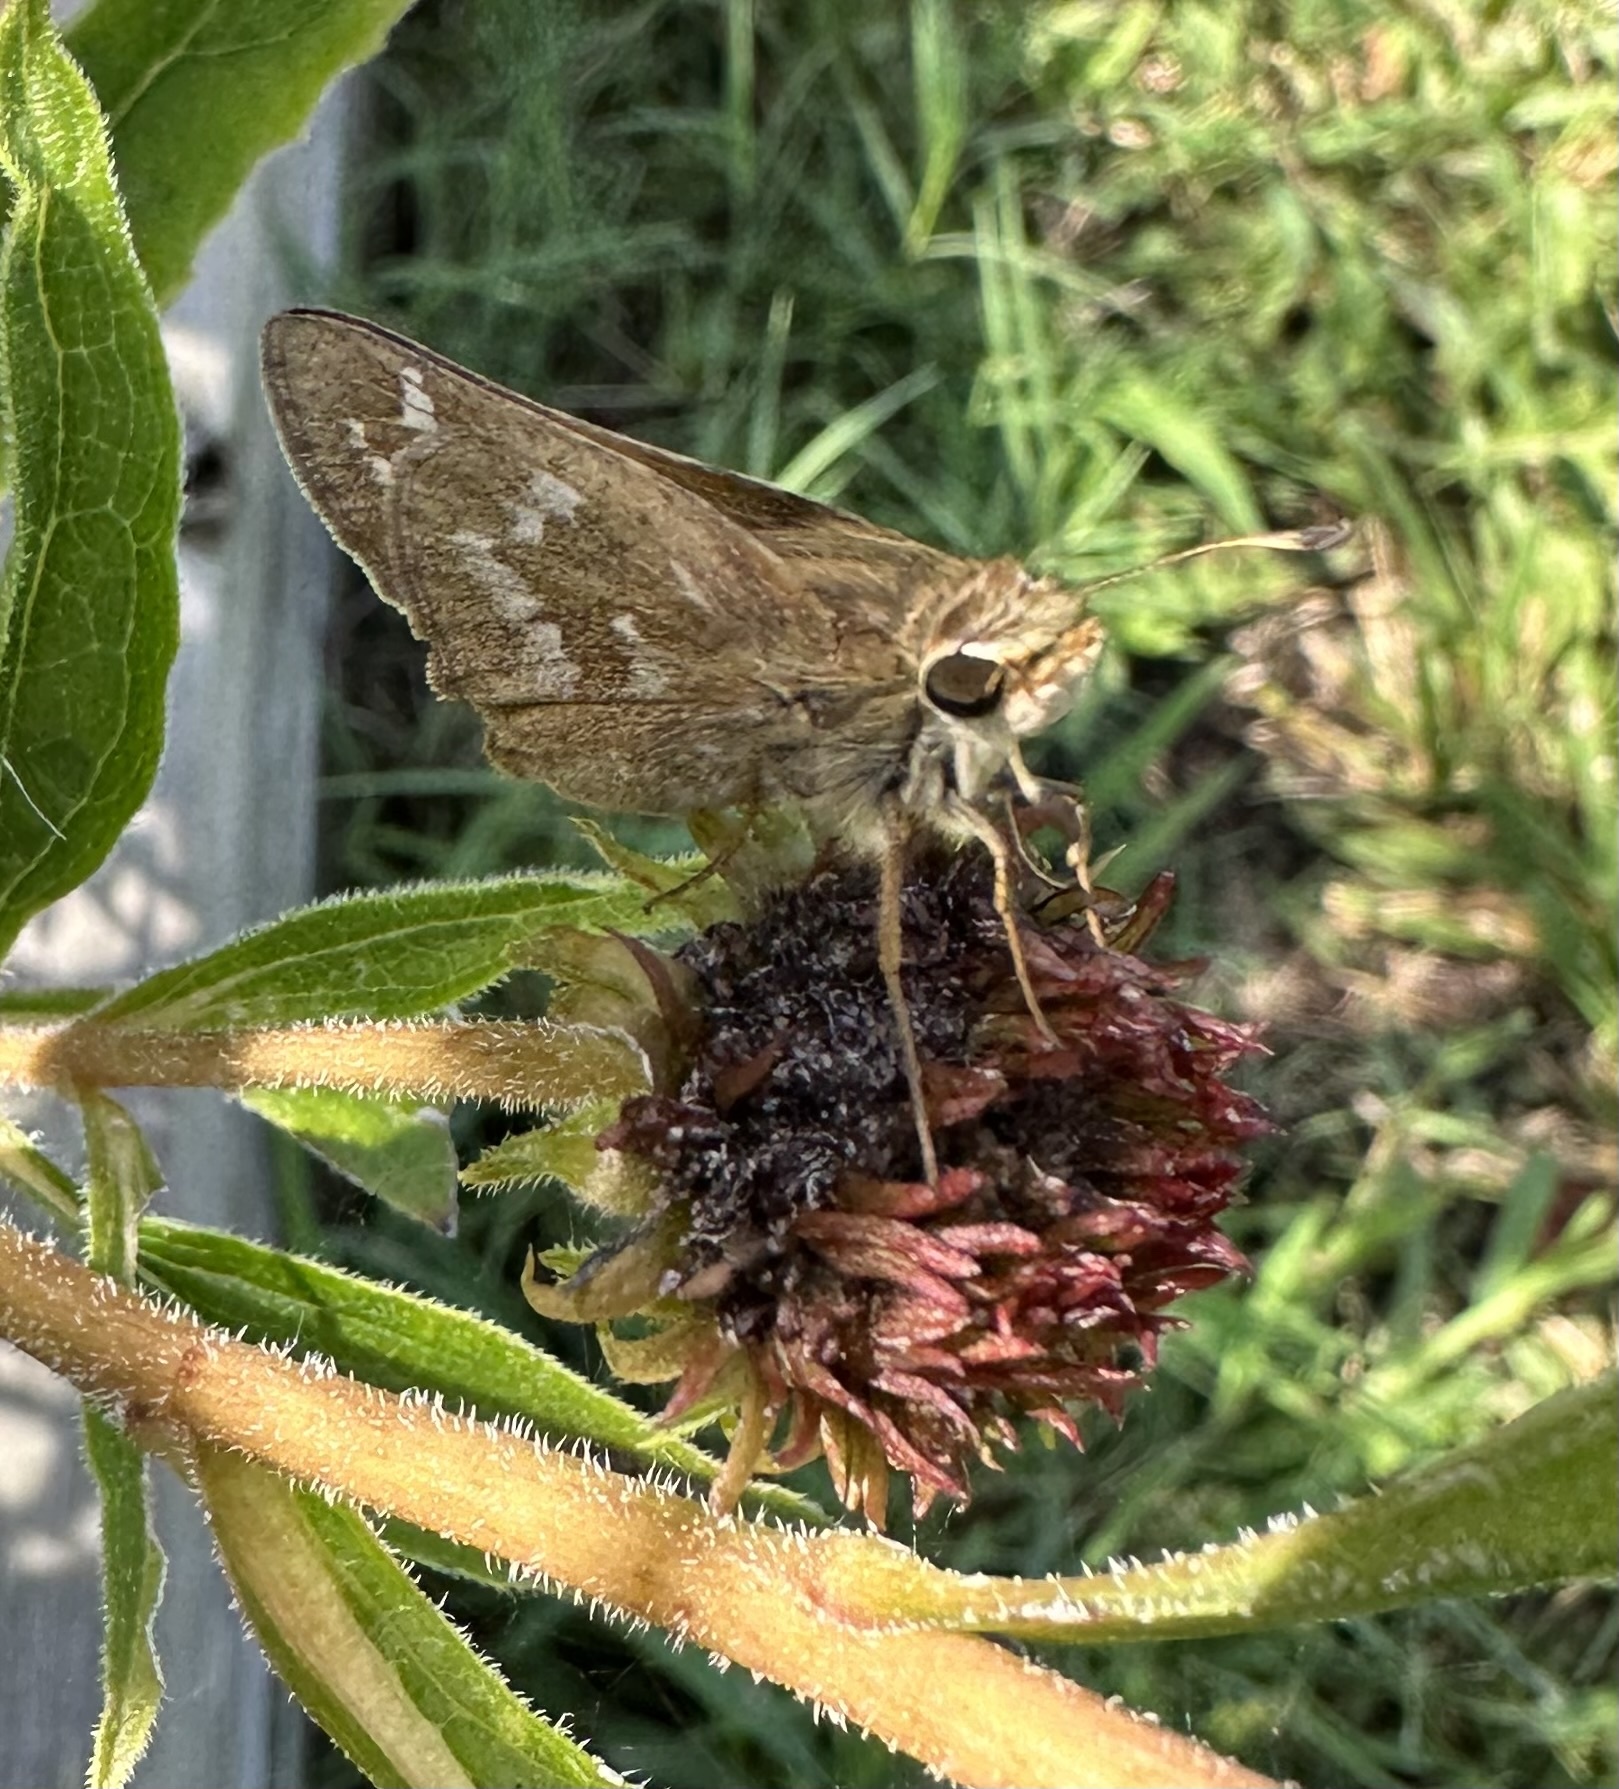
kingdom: Animalia
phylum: Arthropoda
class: Insecta
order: Lepidoptera
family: Hesperiidae
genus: Atalopedes
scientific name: Atalopedes
